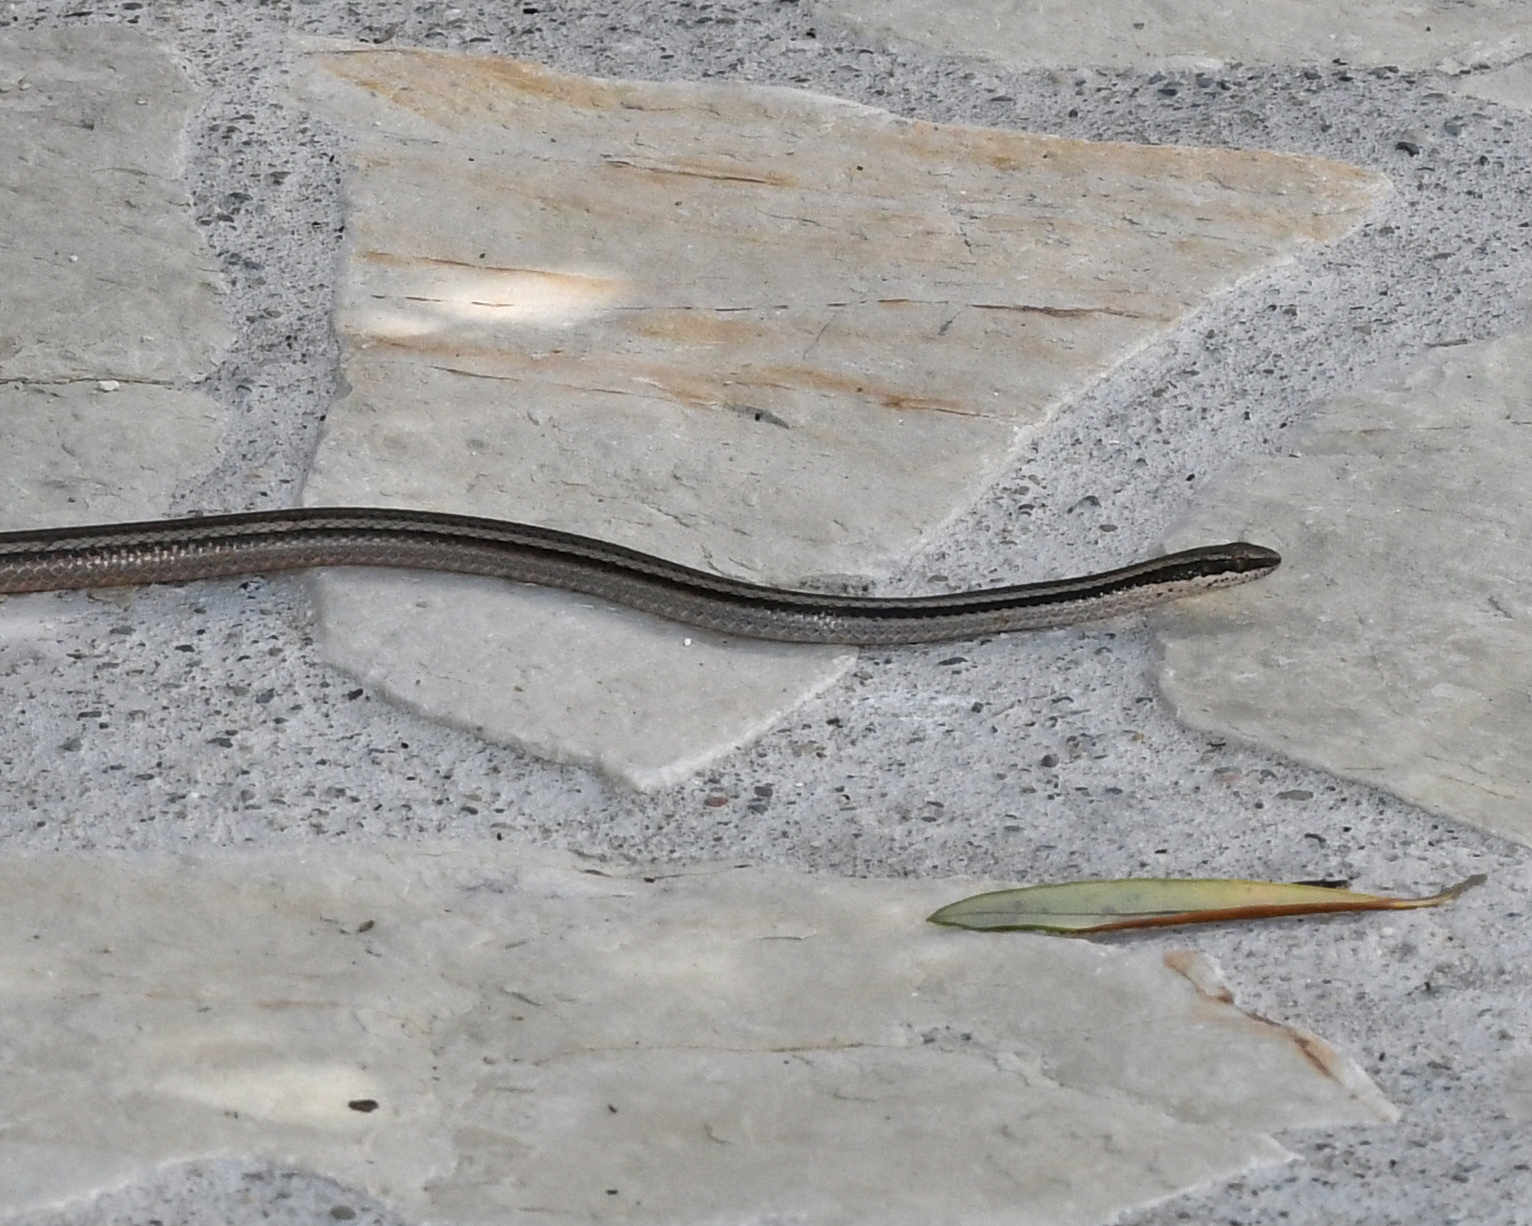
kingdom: Animalia
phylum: Chordata
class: Squamata
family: Colubridae
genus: Hypsirhynchus
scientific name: Hypsirhynchus parvifrons
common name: Cope's antilles snake
